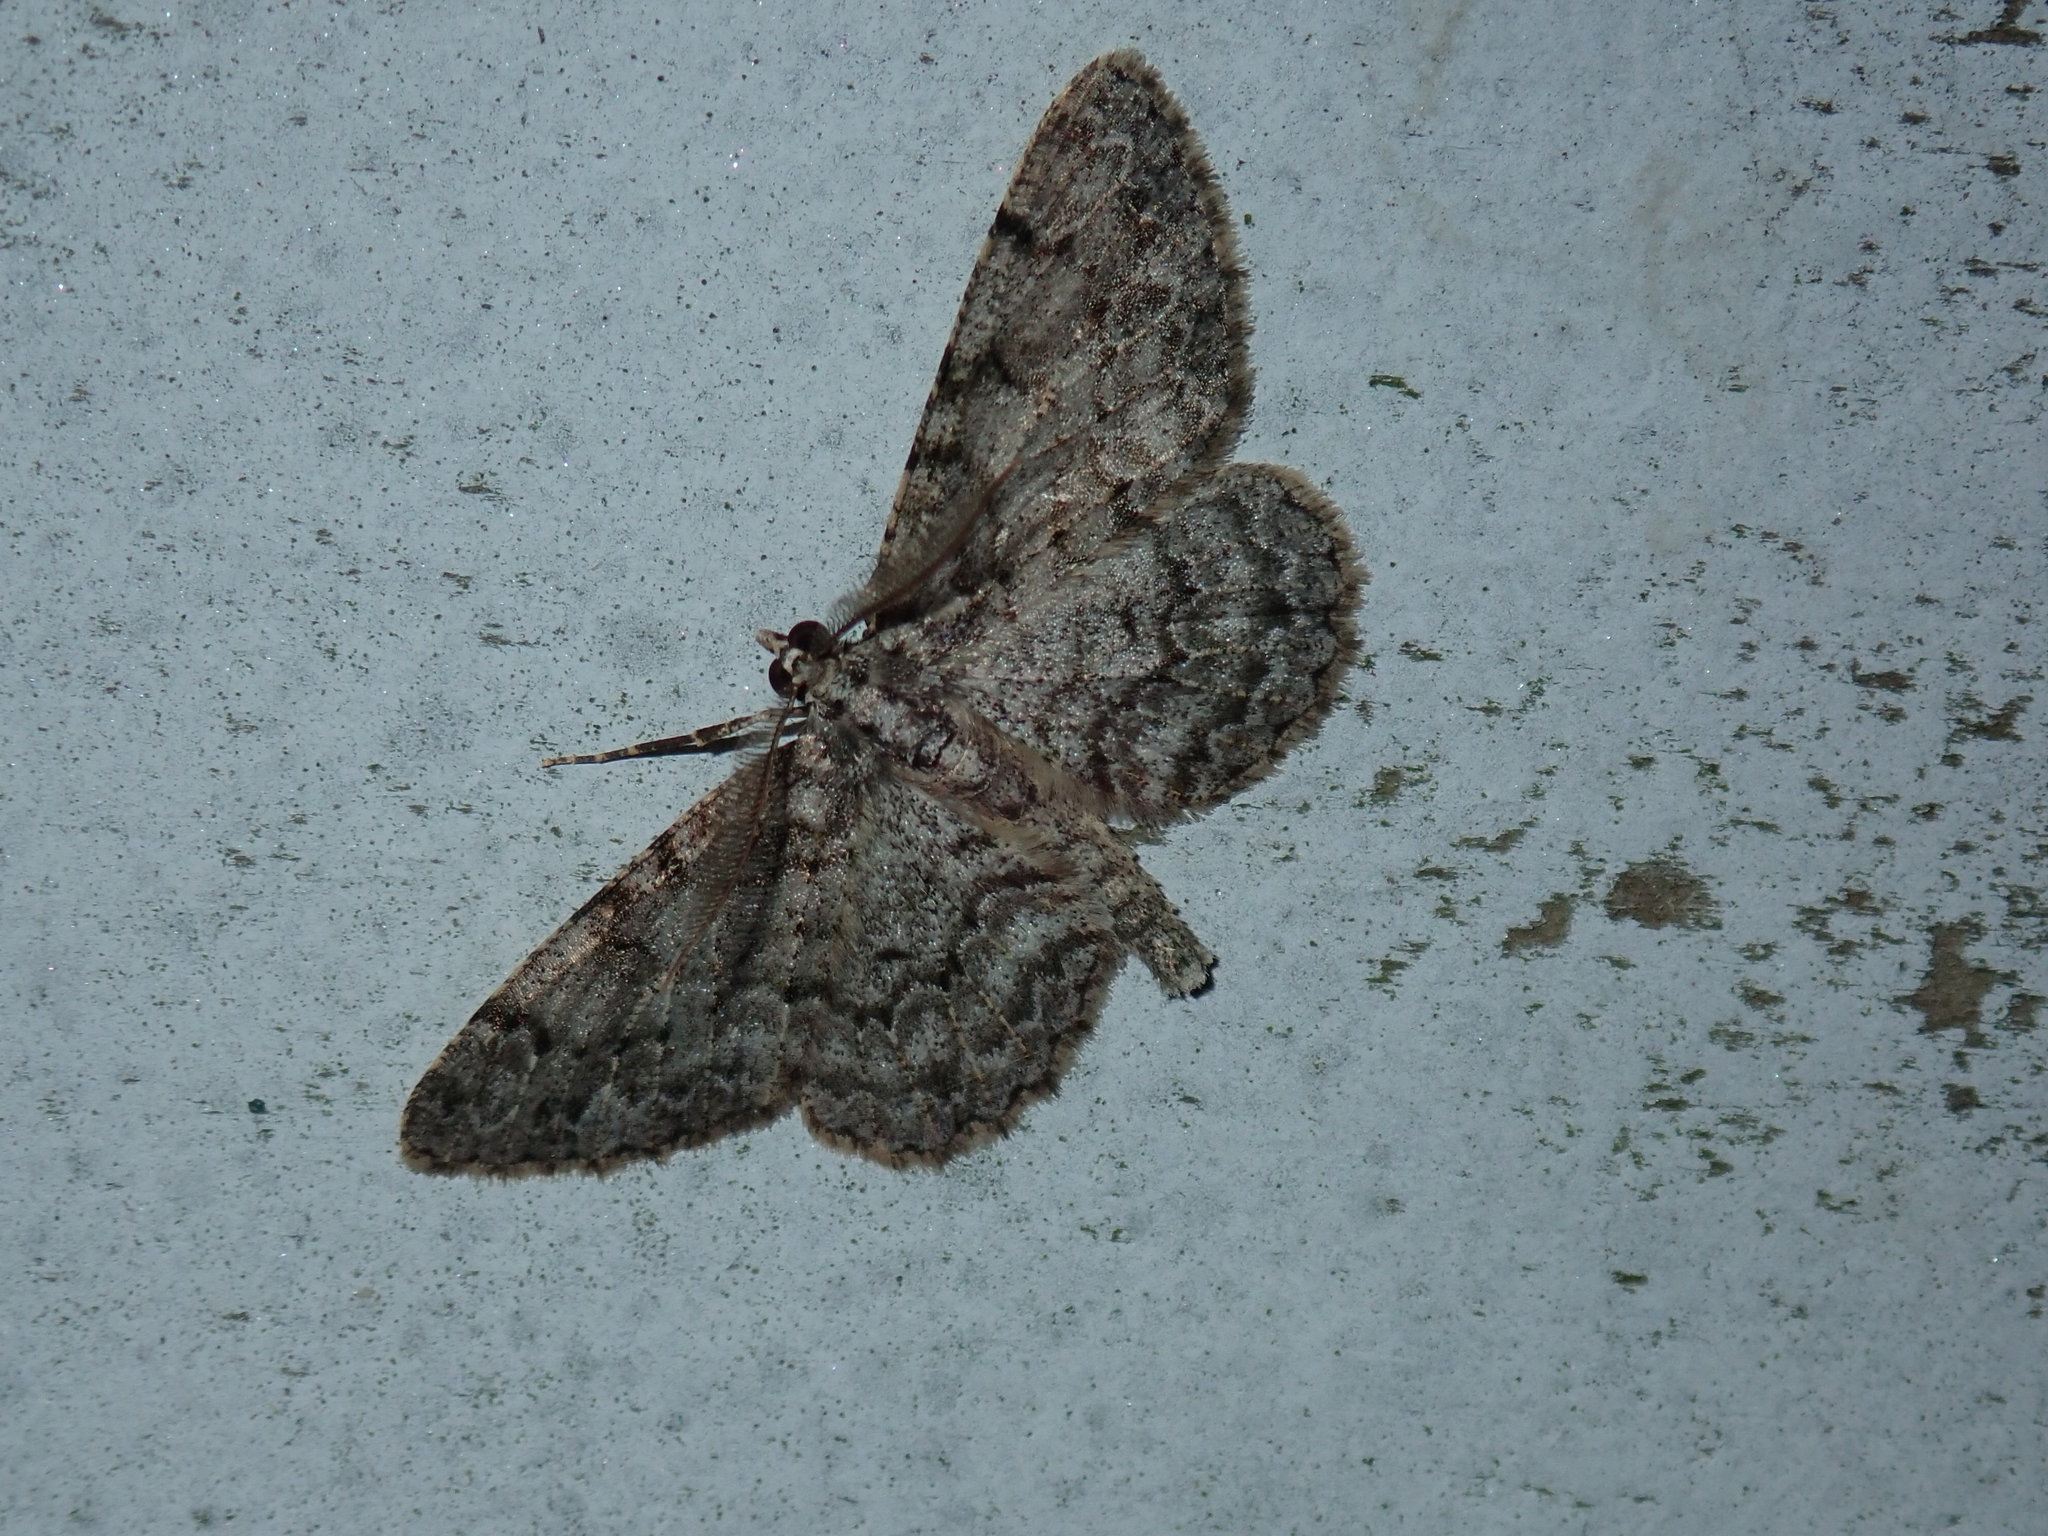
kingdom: Animalia
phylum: Arthropoda
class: Insecta
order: Lepidoptera
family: Geometridae
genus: Protoboarmia
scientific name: Protoboarmia porcelaria
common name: Porcelain gray
